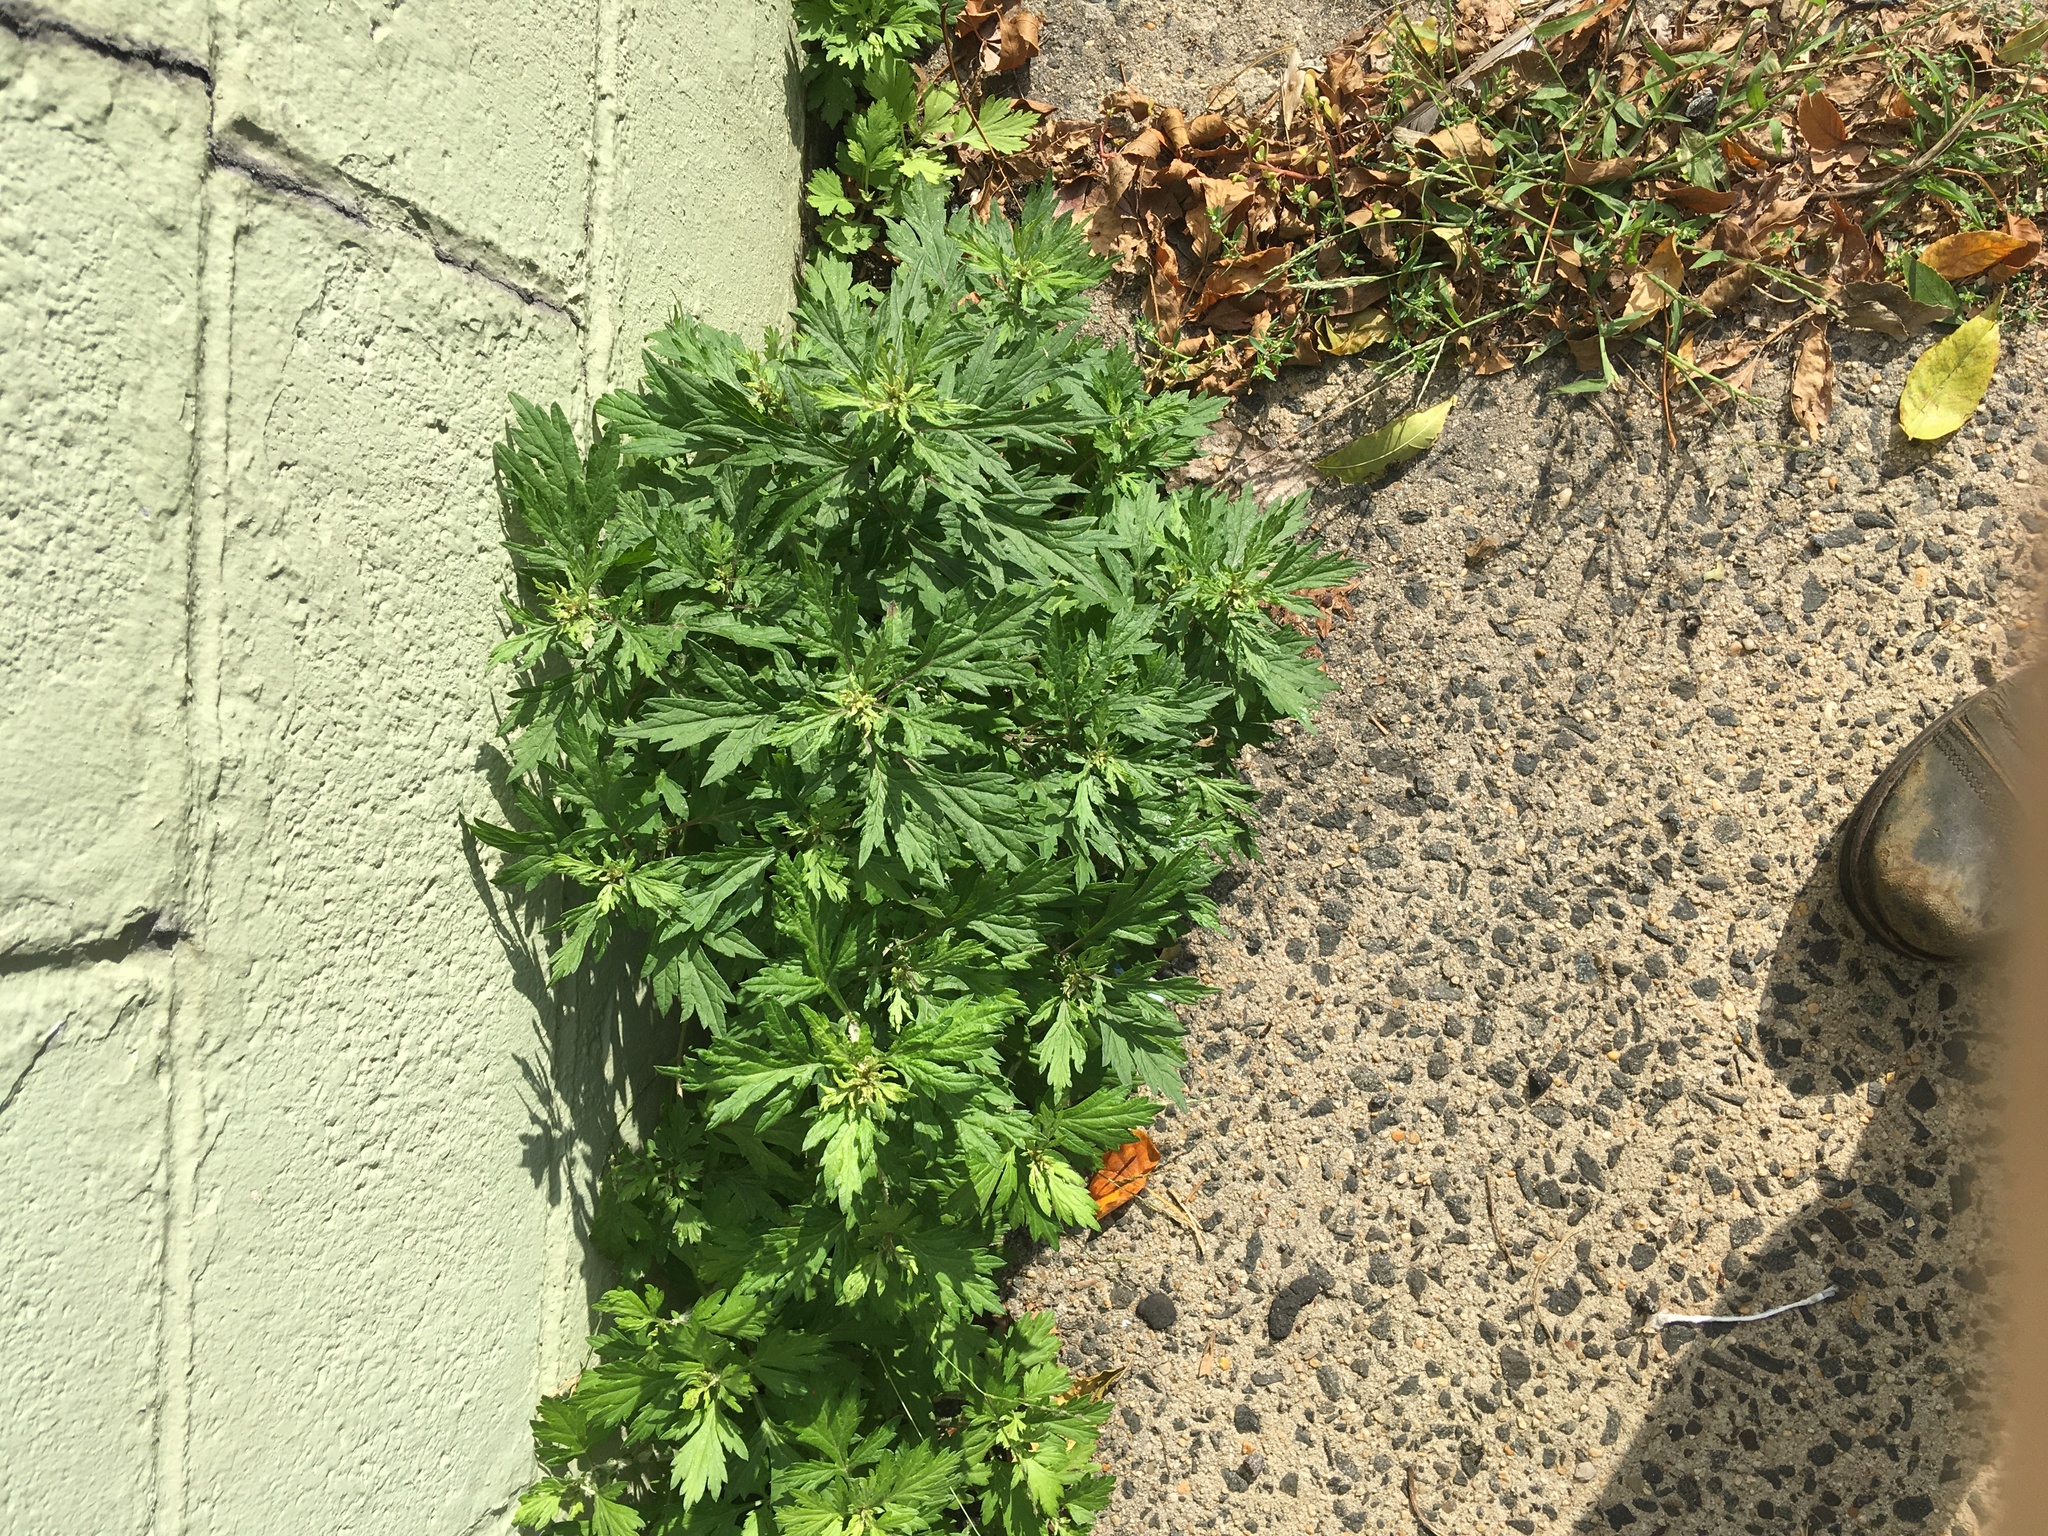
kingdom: Plantae
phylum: Tracheophyta
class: Magnoliopsida
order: Asterales
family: Asteraceae
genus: Artemisia
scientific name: Artemisia vulgaris
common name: Mugwort
